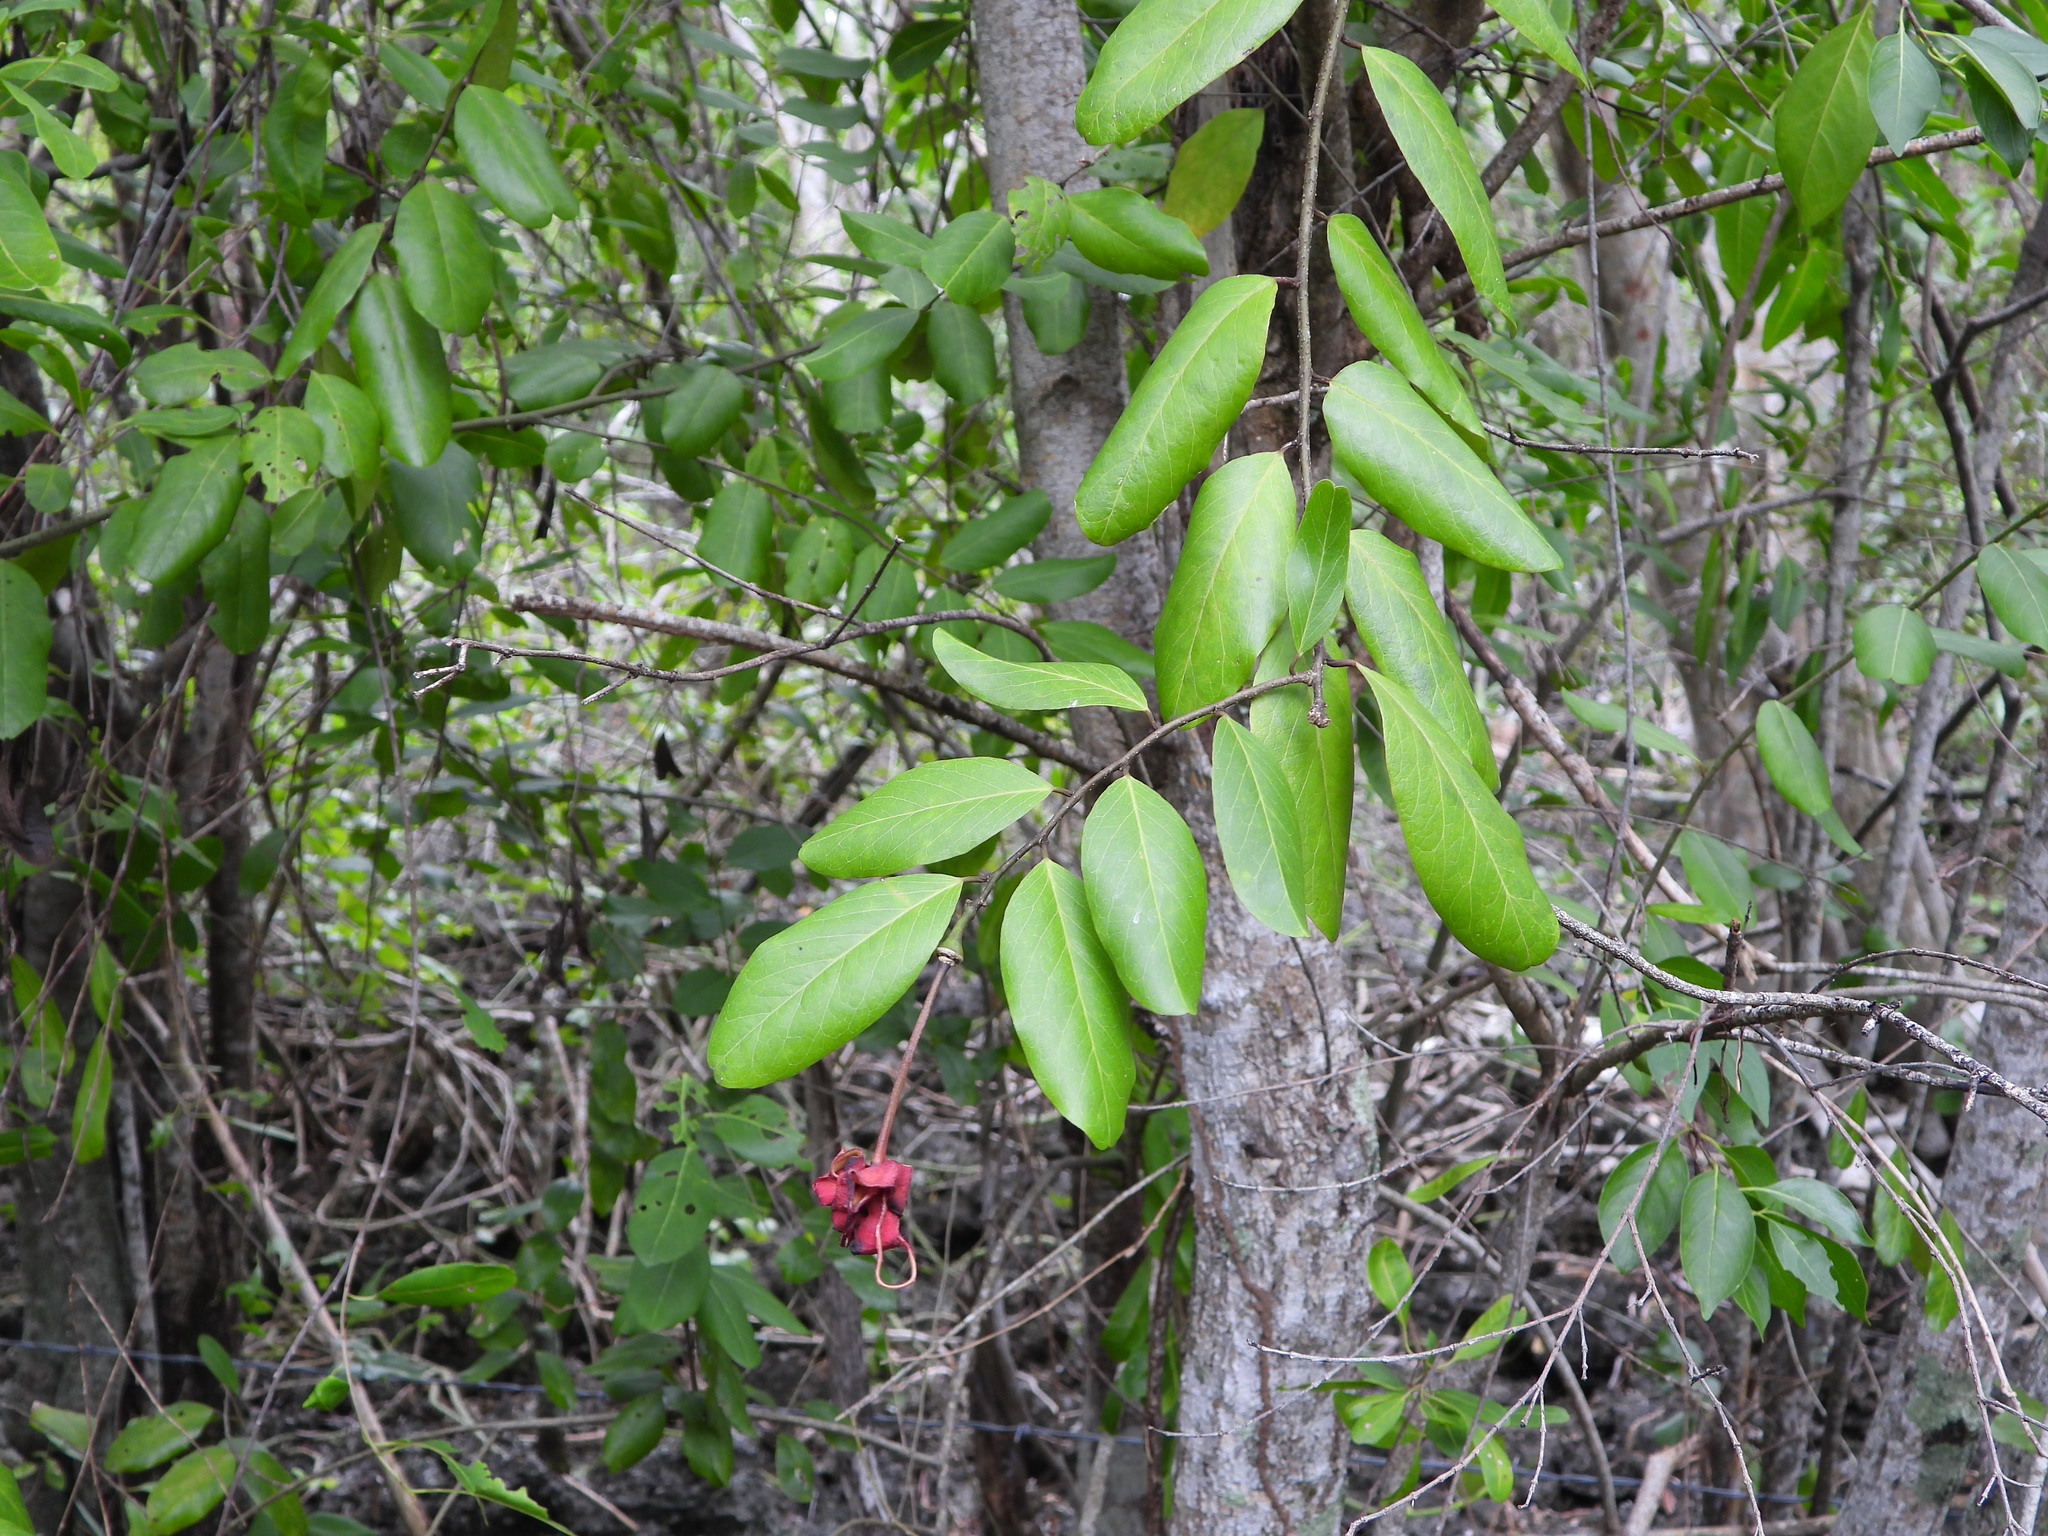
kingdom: Plantae
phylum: Tracheophyta
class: Magnoliopsida
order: Brassicales
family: Capparaceae
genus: Cynophalla
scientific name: Cynophalla flexuosa
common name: Capertree
